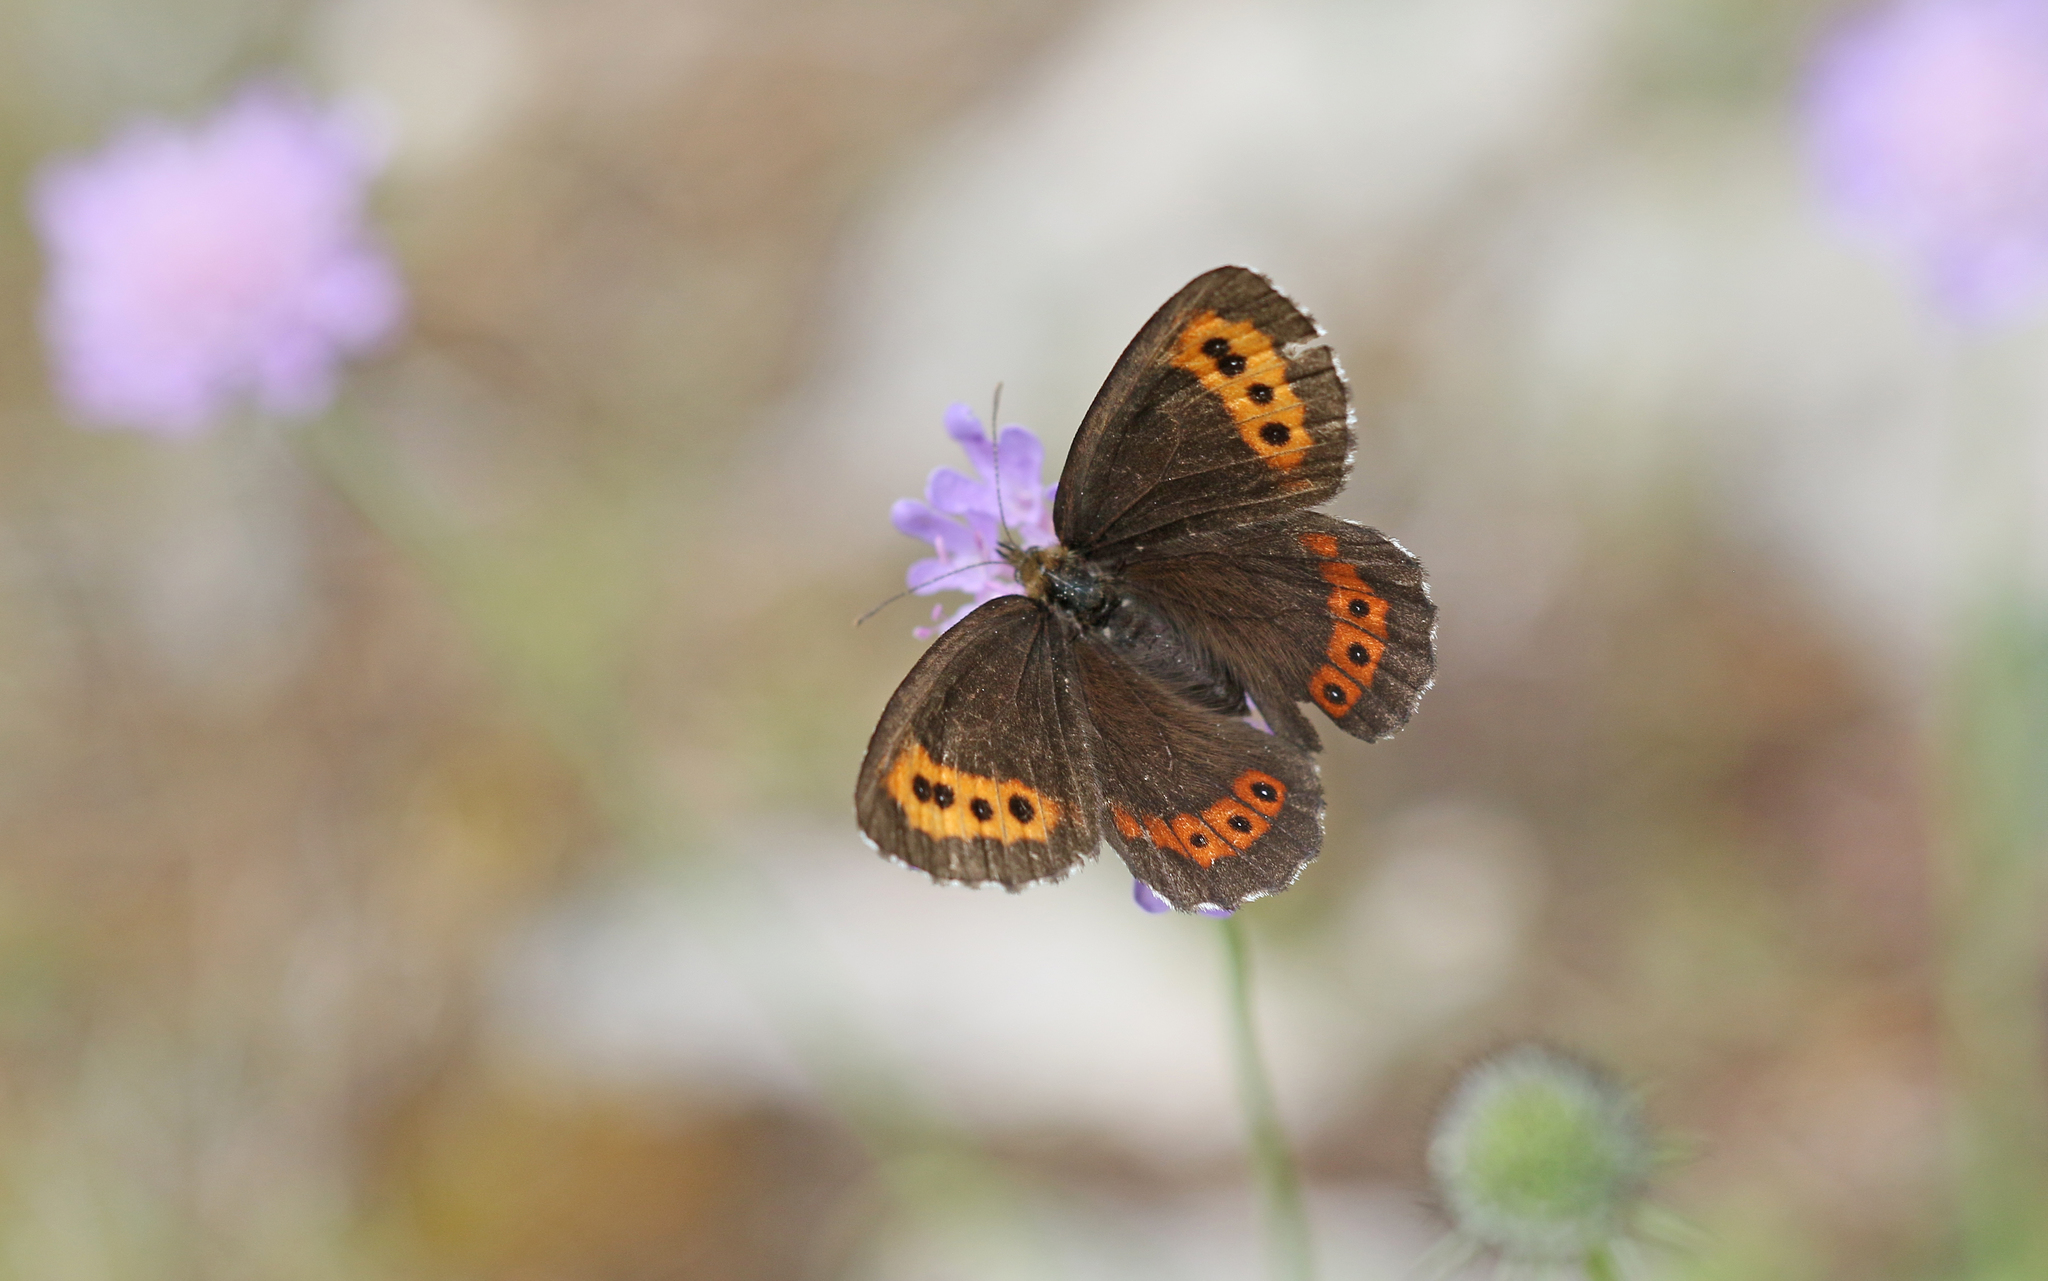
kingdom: Animalia
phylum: Arthropoda
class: Insecta
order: Lepidoptera
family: Nymphalidae
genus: Erebia
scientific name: Erebia ligea
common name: Arran brown
